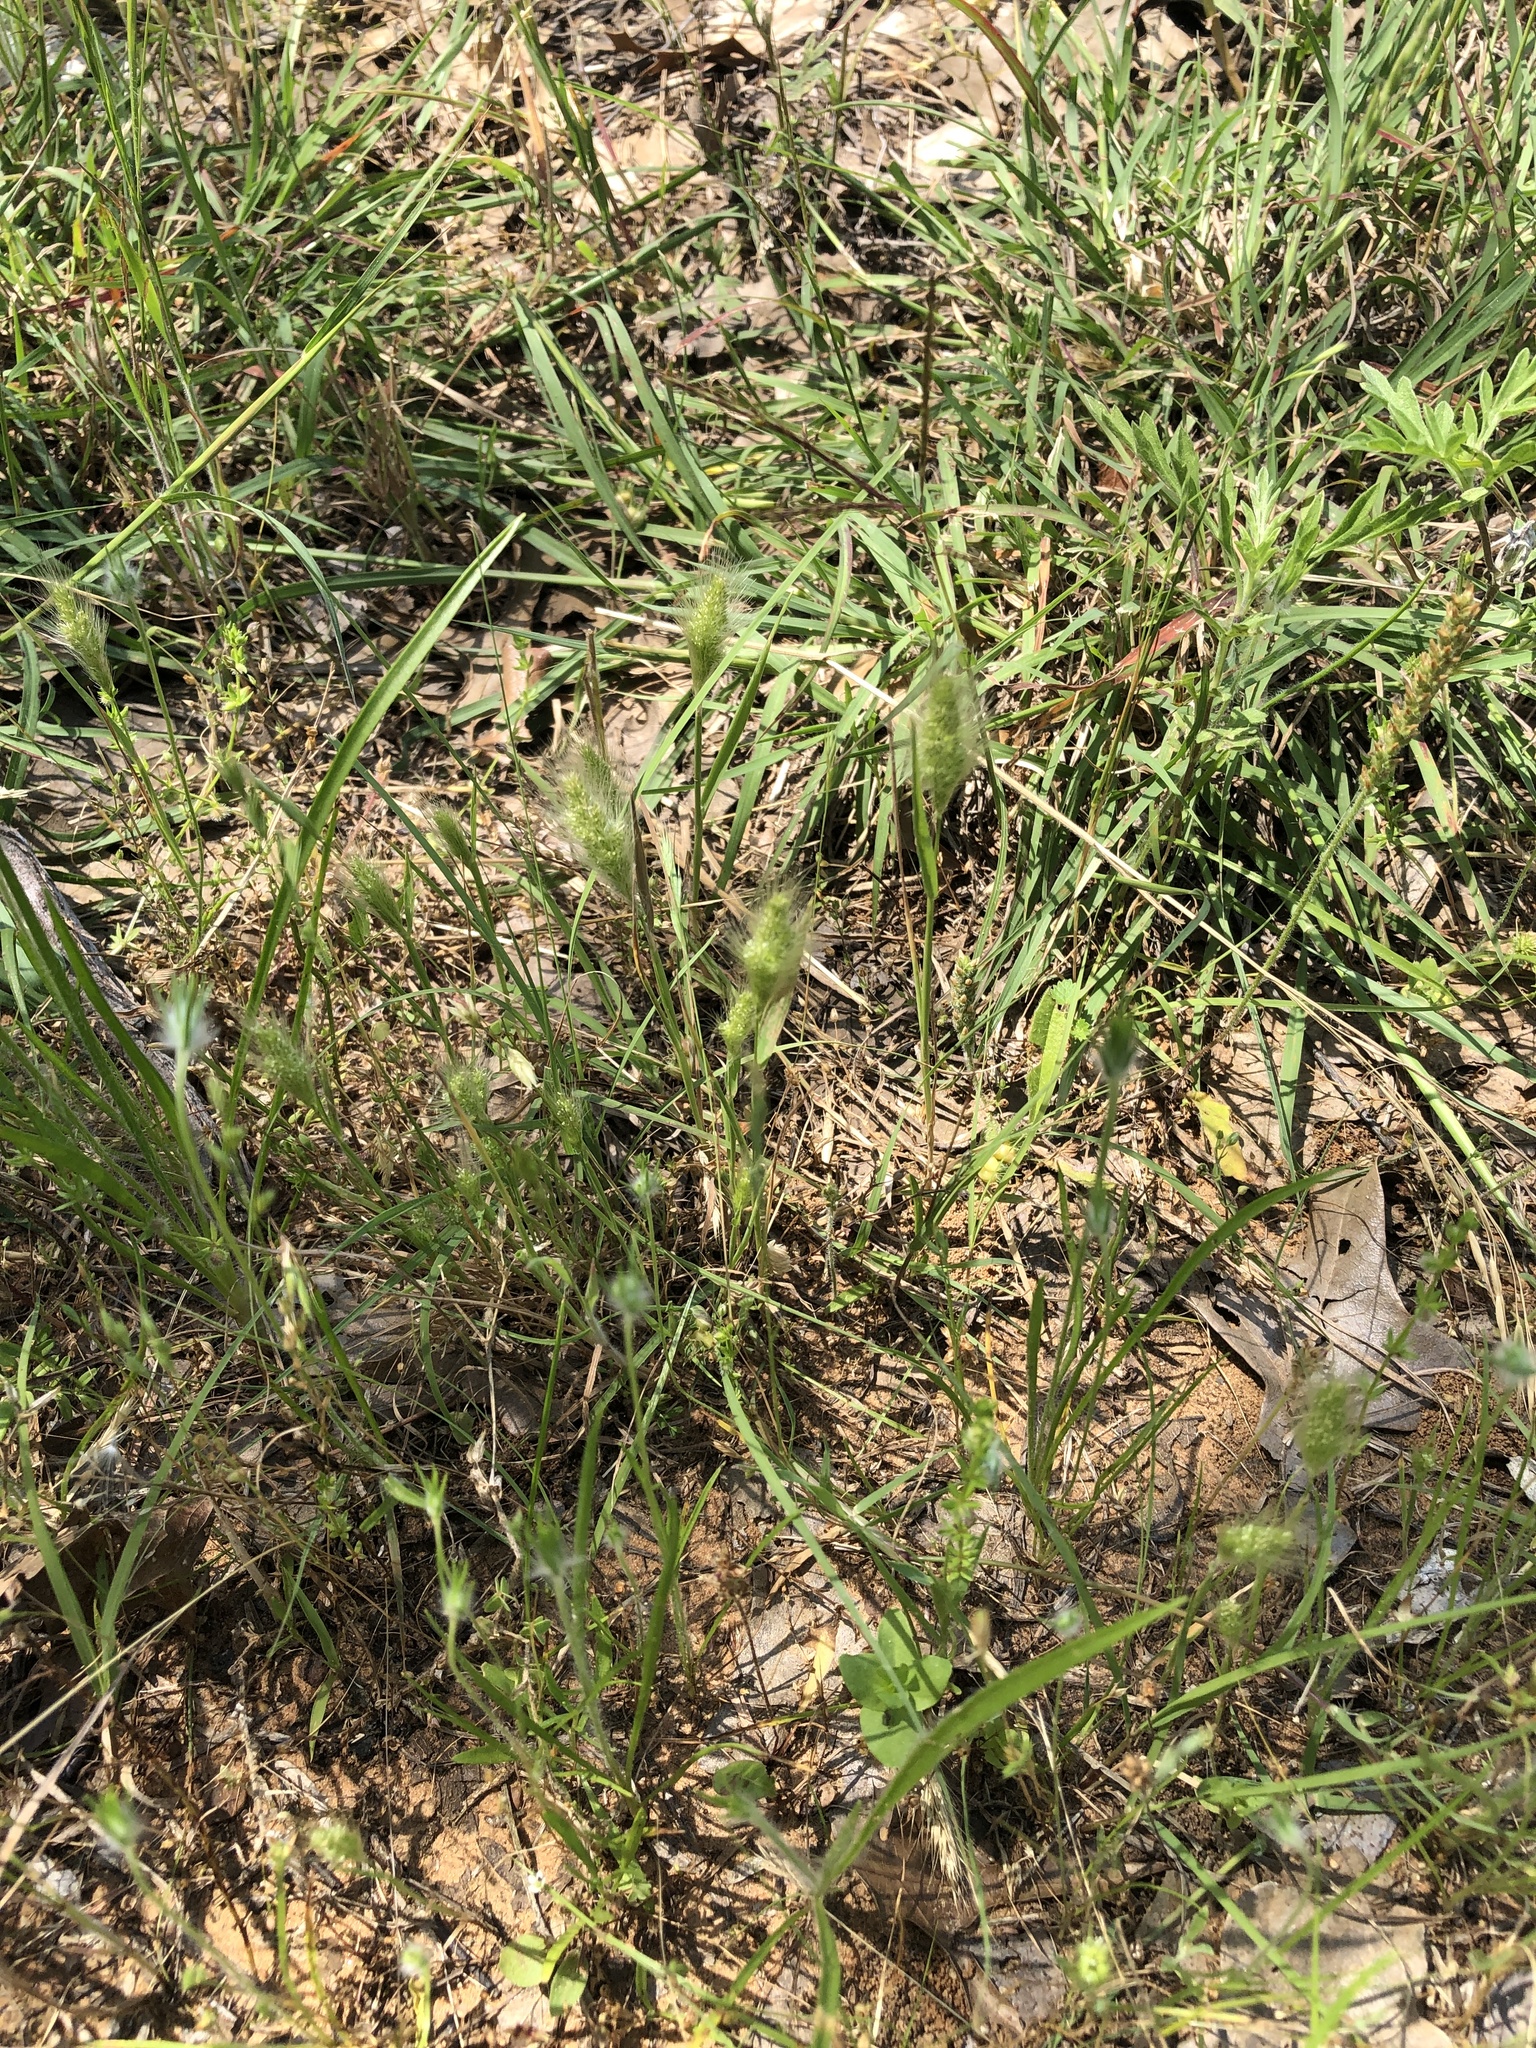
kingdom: Plantae
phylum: Tracheophyta
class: Liliopsida
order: Poales
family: Poaceae
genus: Polypogon
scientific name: Polypogon monspeliensis
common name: Annual rabbitsfoot grass
